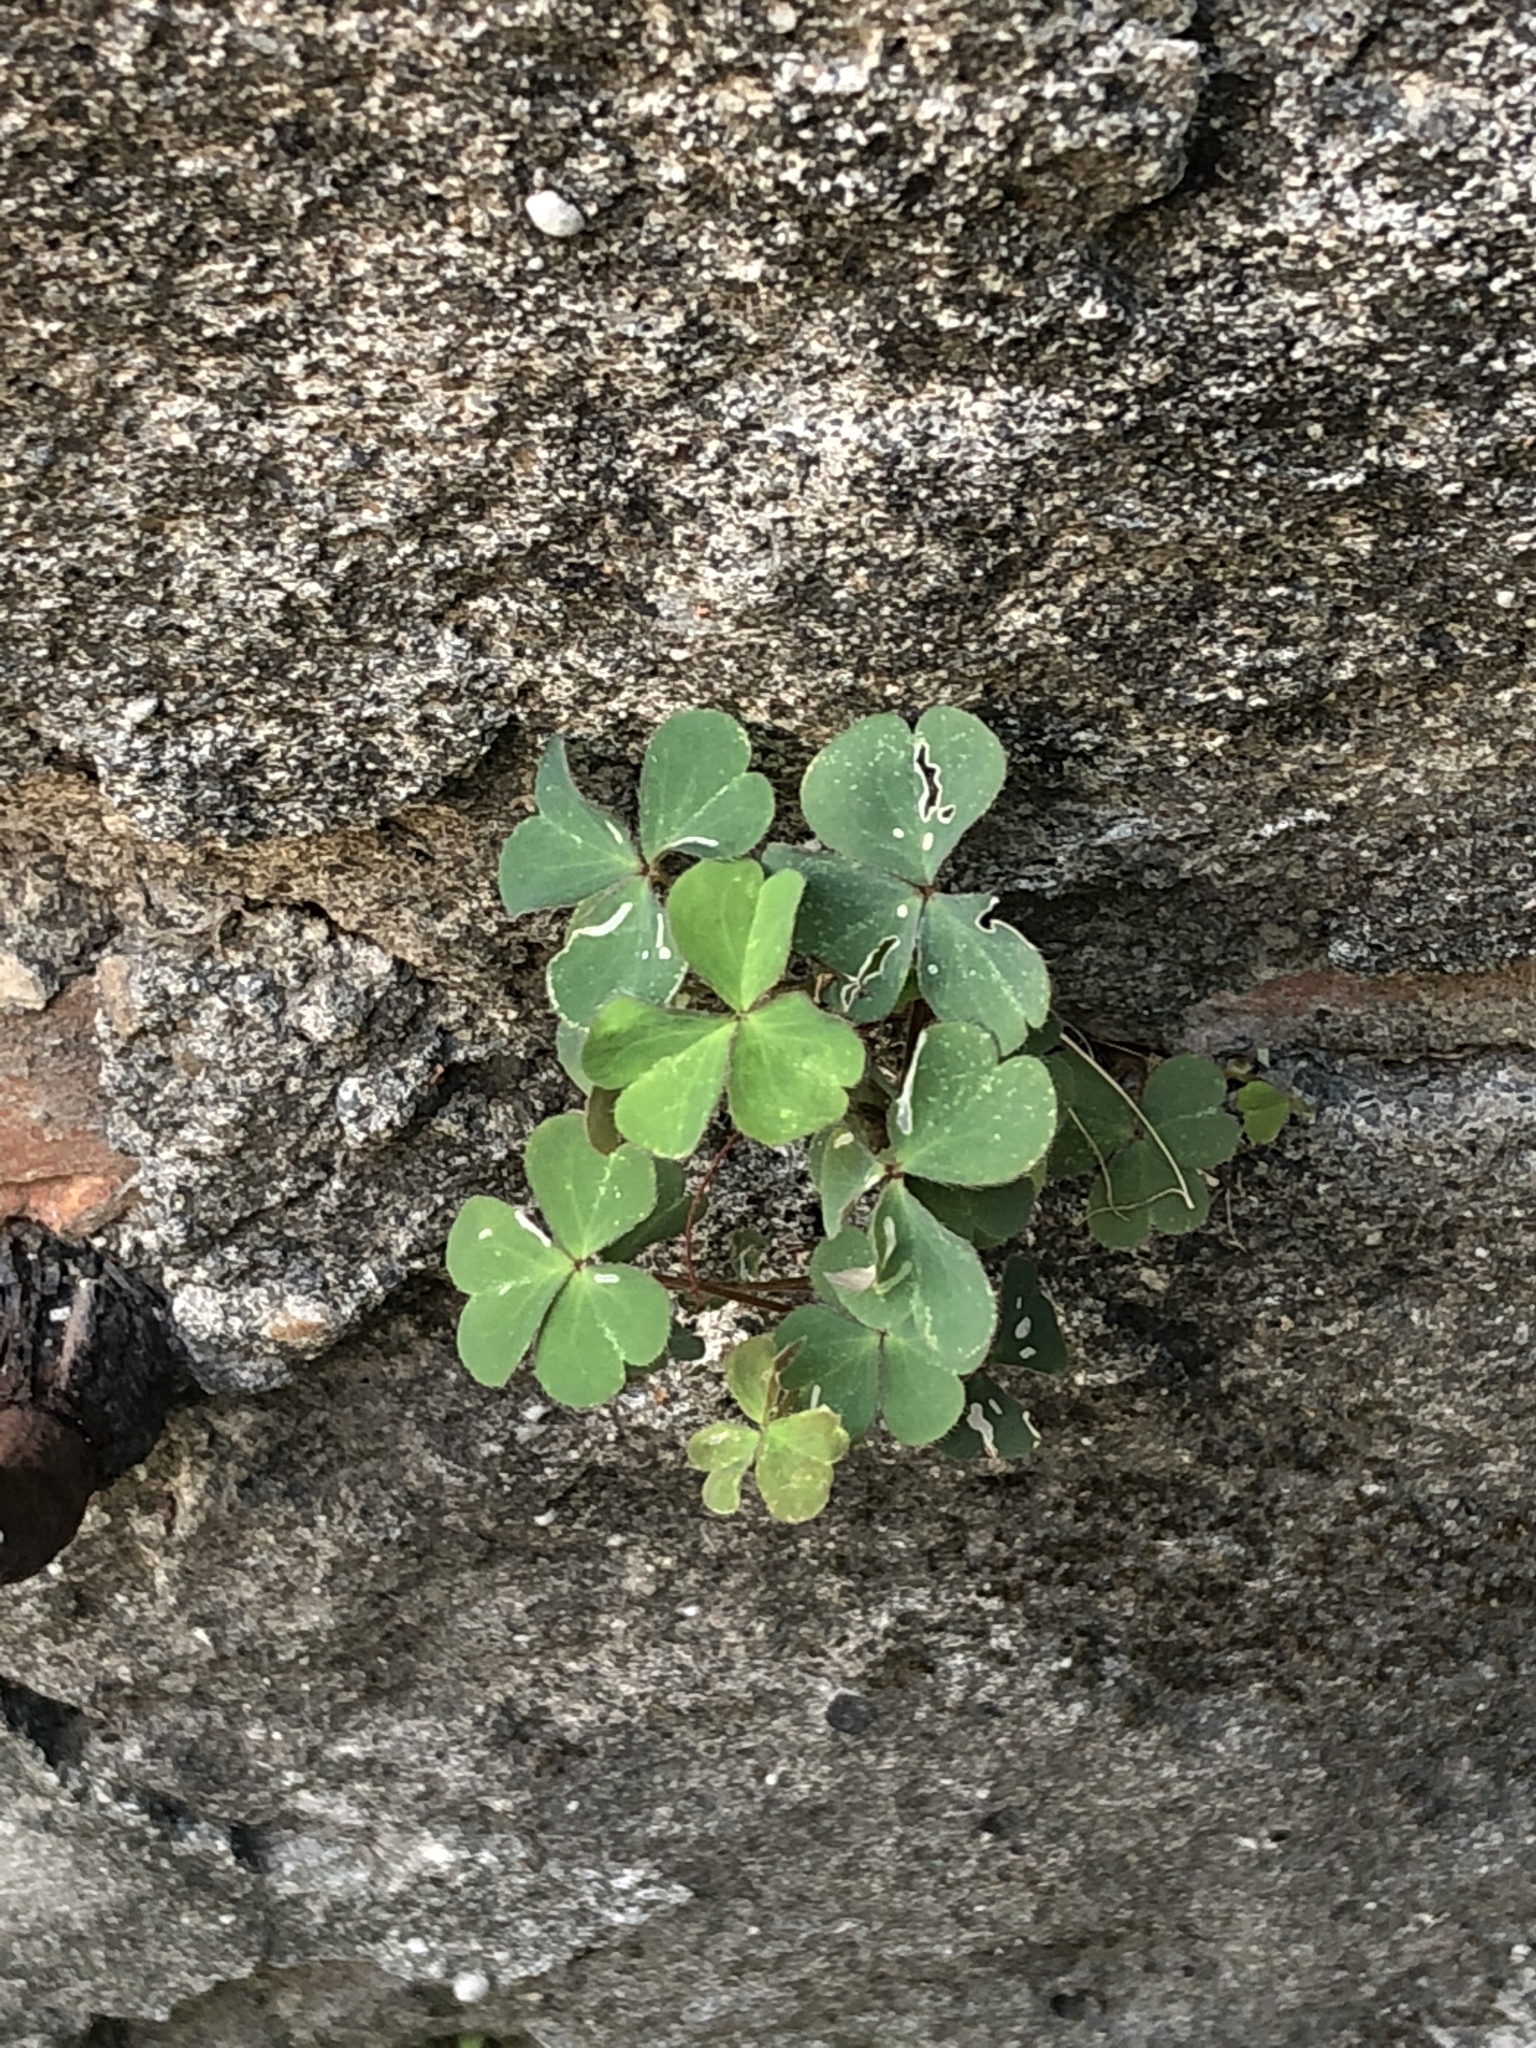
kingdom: Plantae
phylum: Tracheophyta
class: Magnoliopsida
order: Oxalidales
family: Oxalidaceae
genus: Oxalis
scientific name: Oxalis corniculata
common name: Procumbent yellow-sorrel
